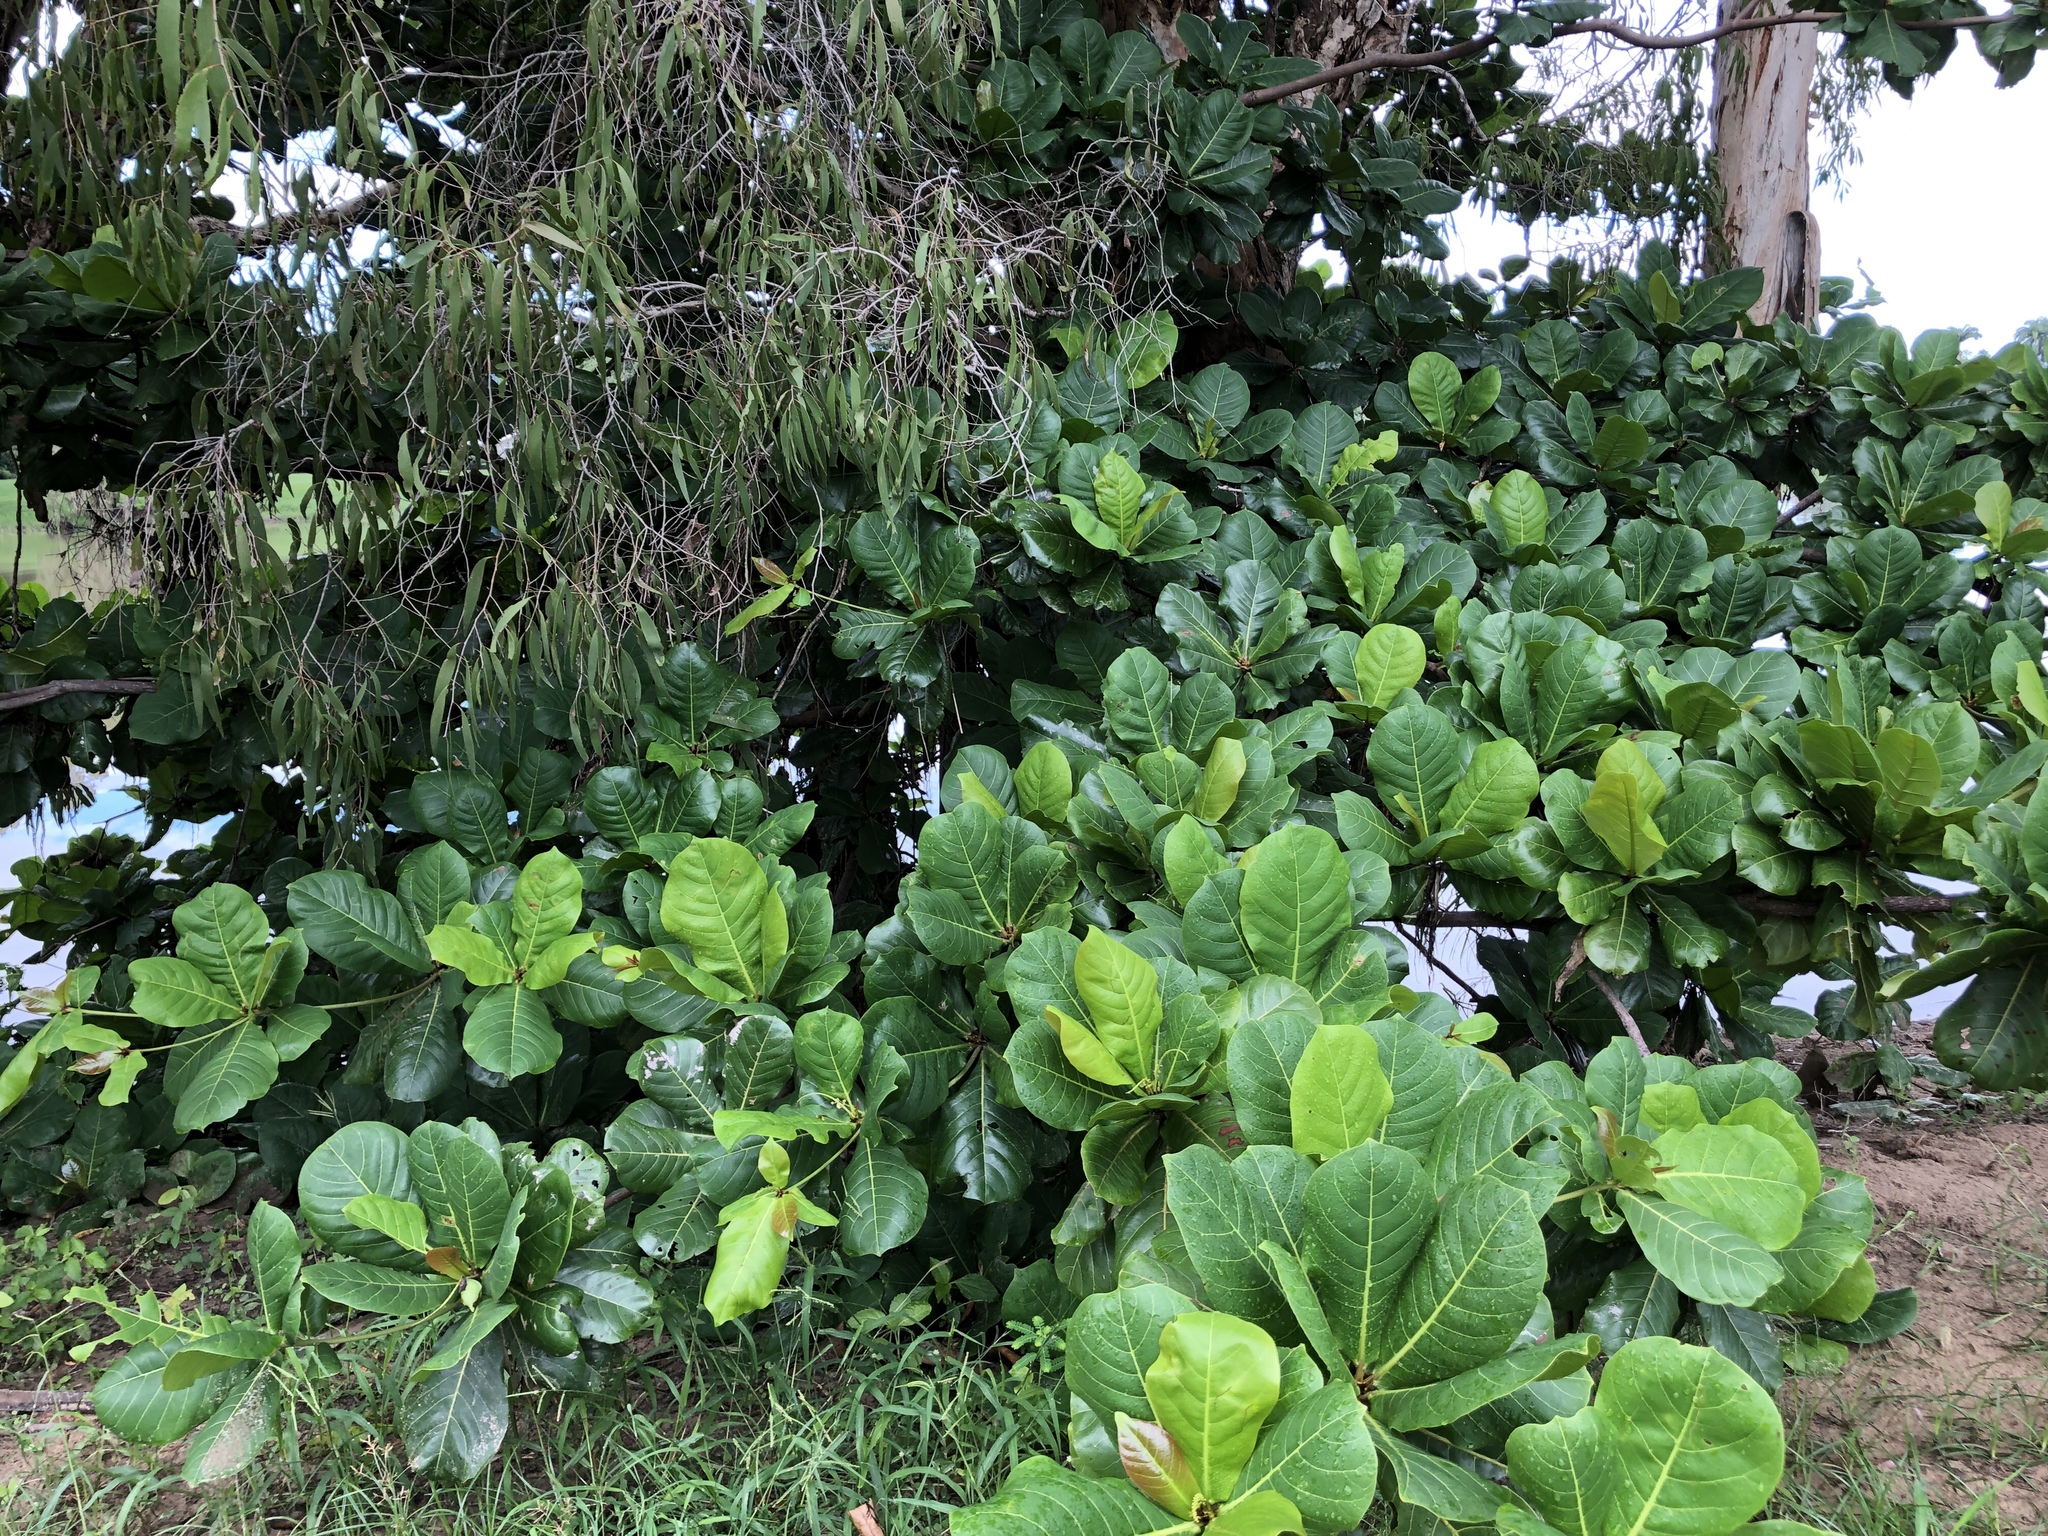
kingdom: Plantae
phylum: Tracheophyta
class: Magnoliopsida
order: Myrtales
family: Combretaceae
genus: Terminalia
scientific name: Terminalia catappa
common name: Tropical almond
